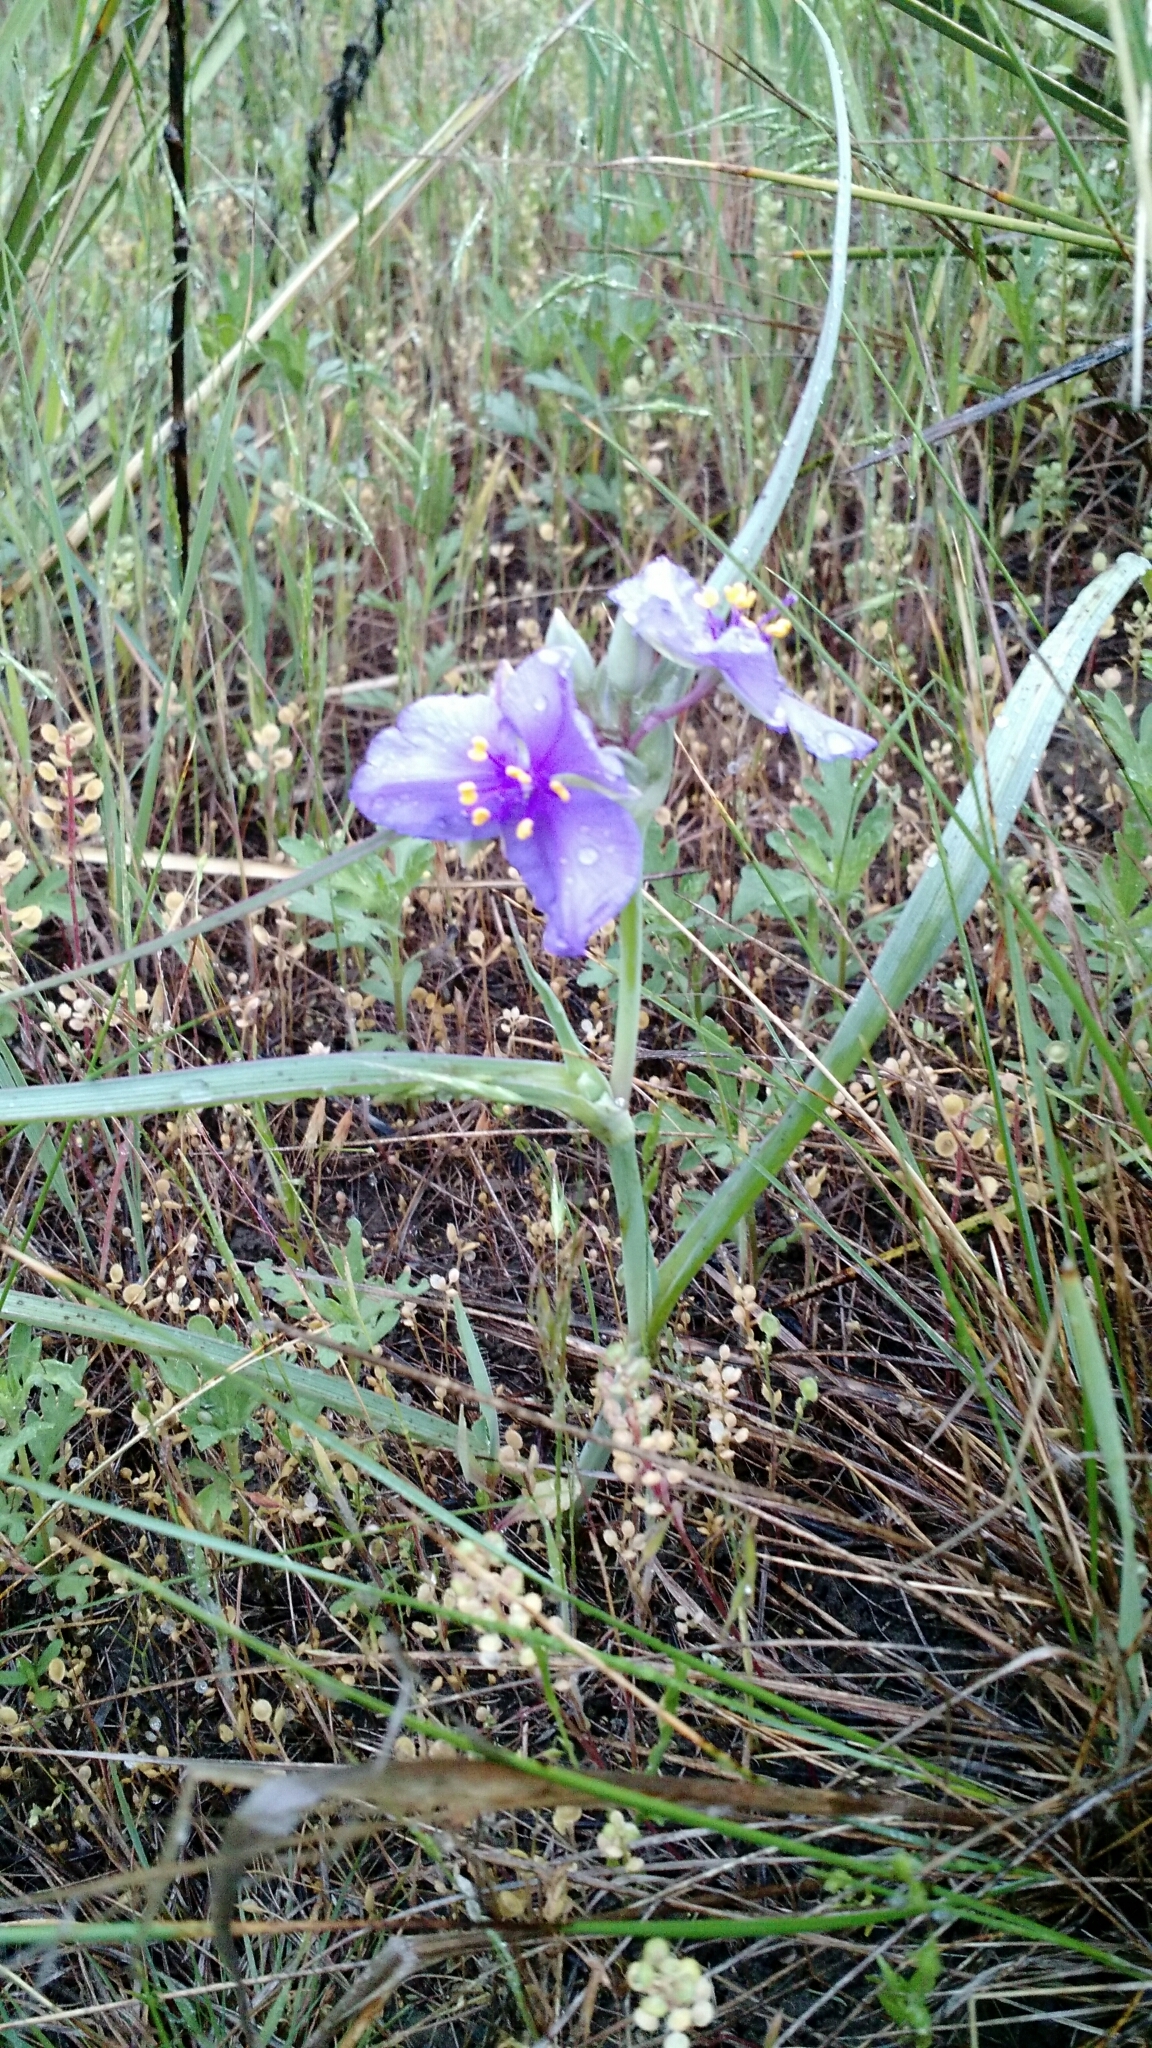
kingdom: Plantae
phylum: Tracheophyta
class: Liliopsida
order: Commelinales
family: Commelinaceae
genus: Tradescantia
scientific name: Tradescantia occidentalis
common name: Prairie spiderwort
